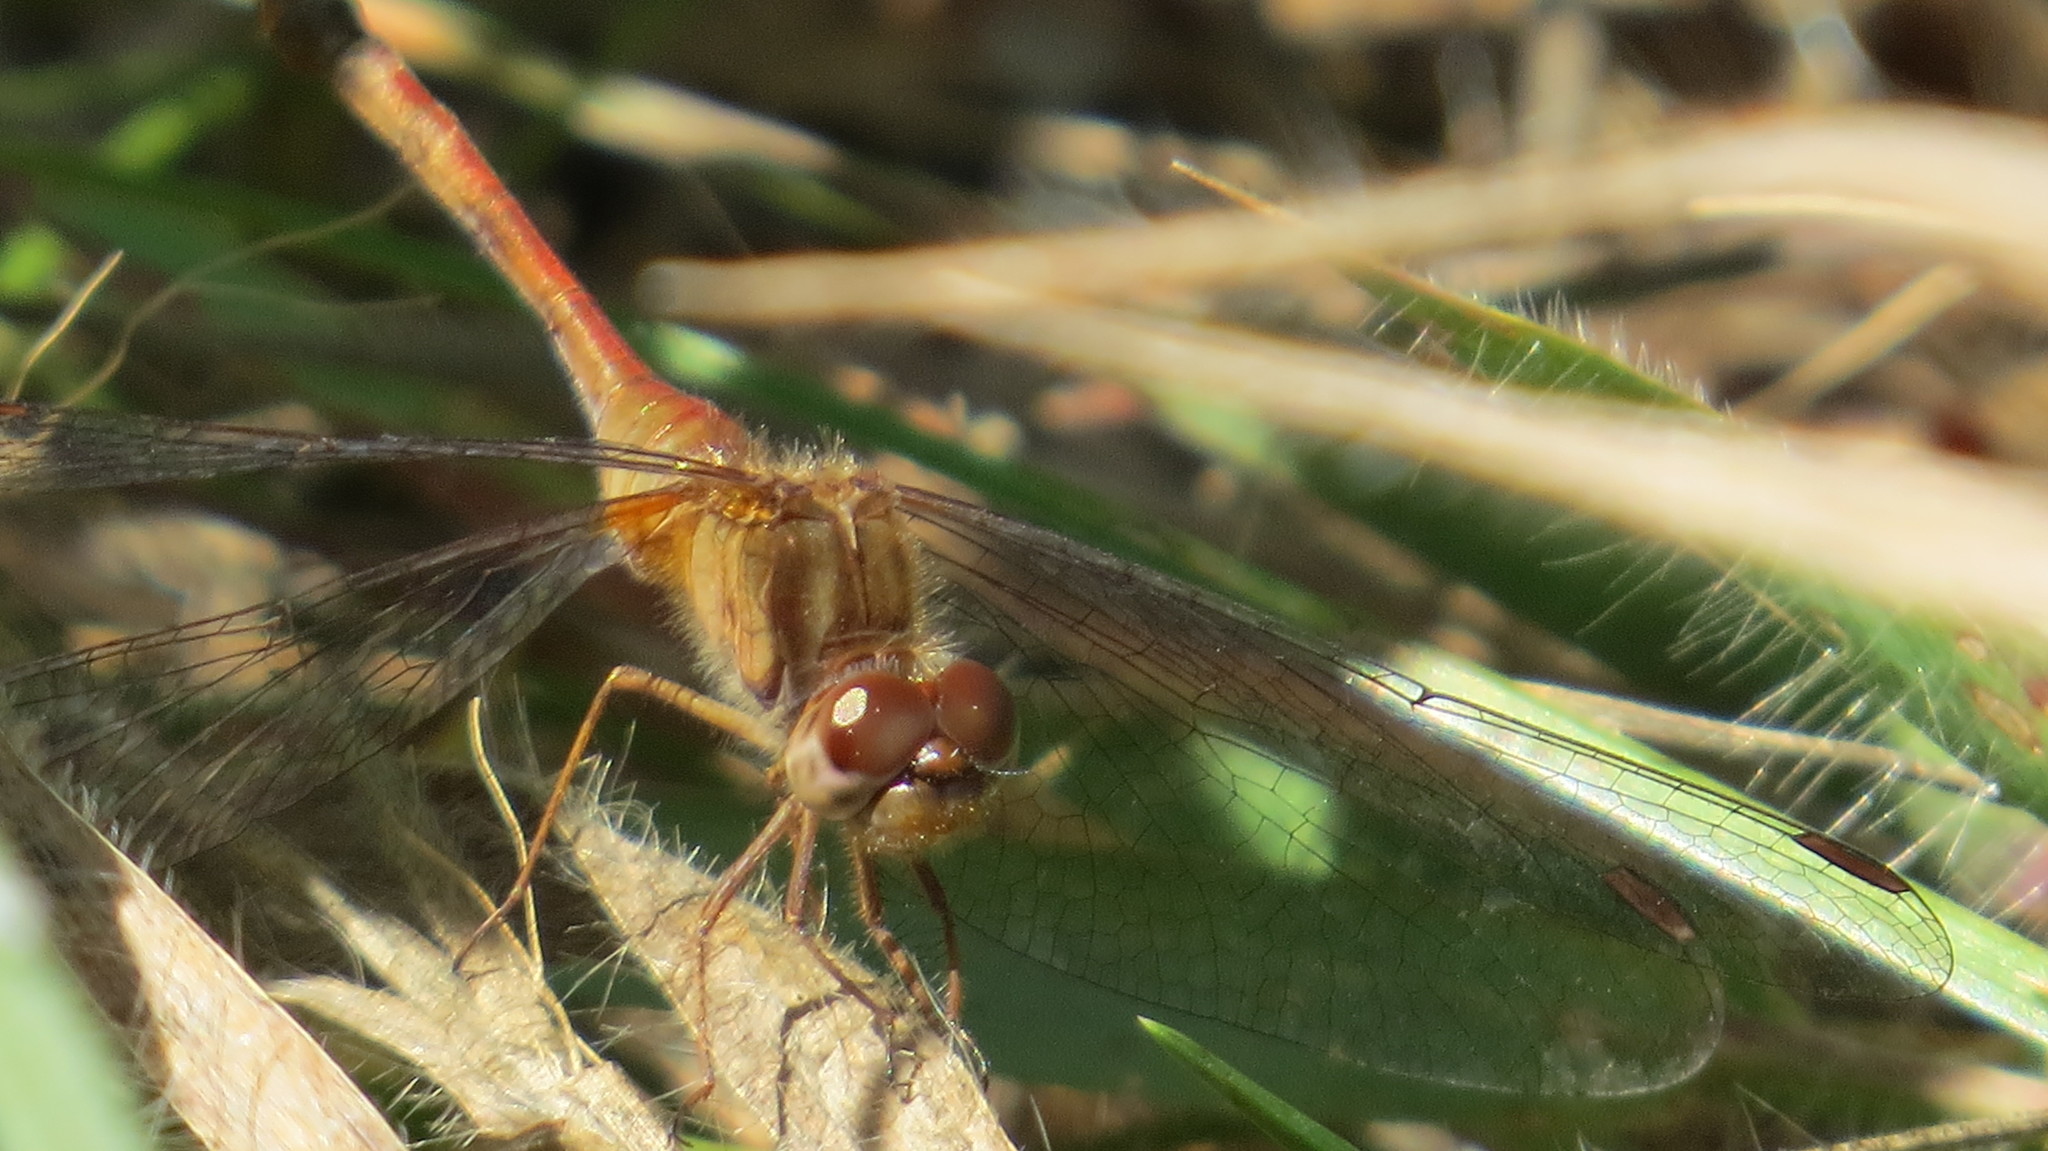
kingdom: Animalia
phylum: Arthropoda
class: Insecta
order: Odonata
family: Libellulidae
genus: Sympetrum
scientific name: Sympetrum vicinum
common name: Autumn meadowhawk
